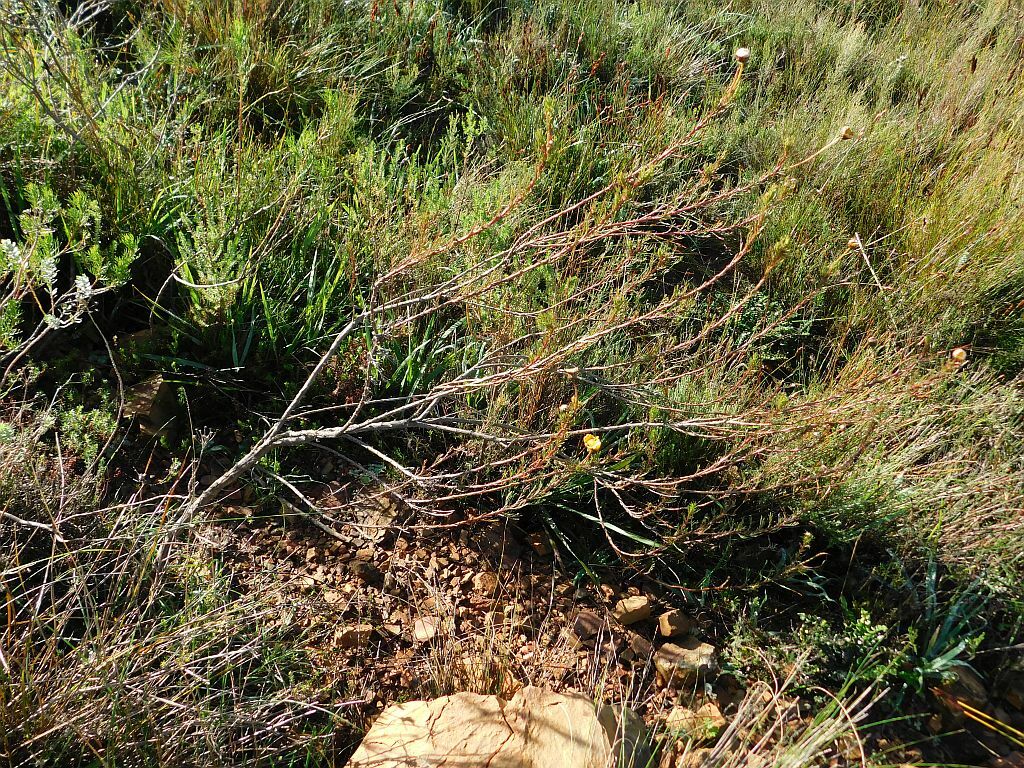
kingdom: Plantae
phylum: Tracheophyta
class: Magnoliopsida
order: Asterales
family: Asteraceae
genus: Ursinia
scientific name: Ursinia paleacea
